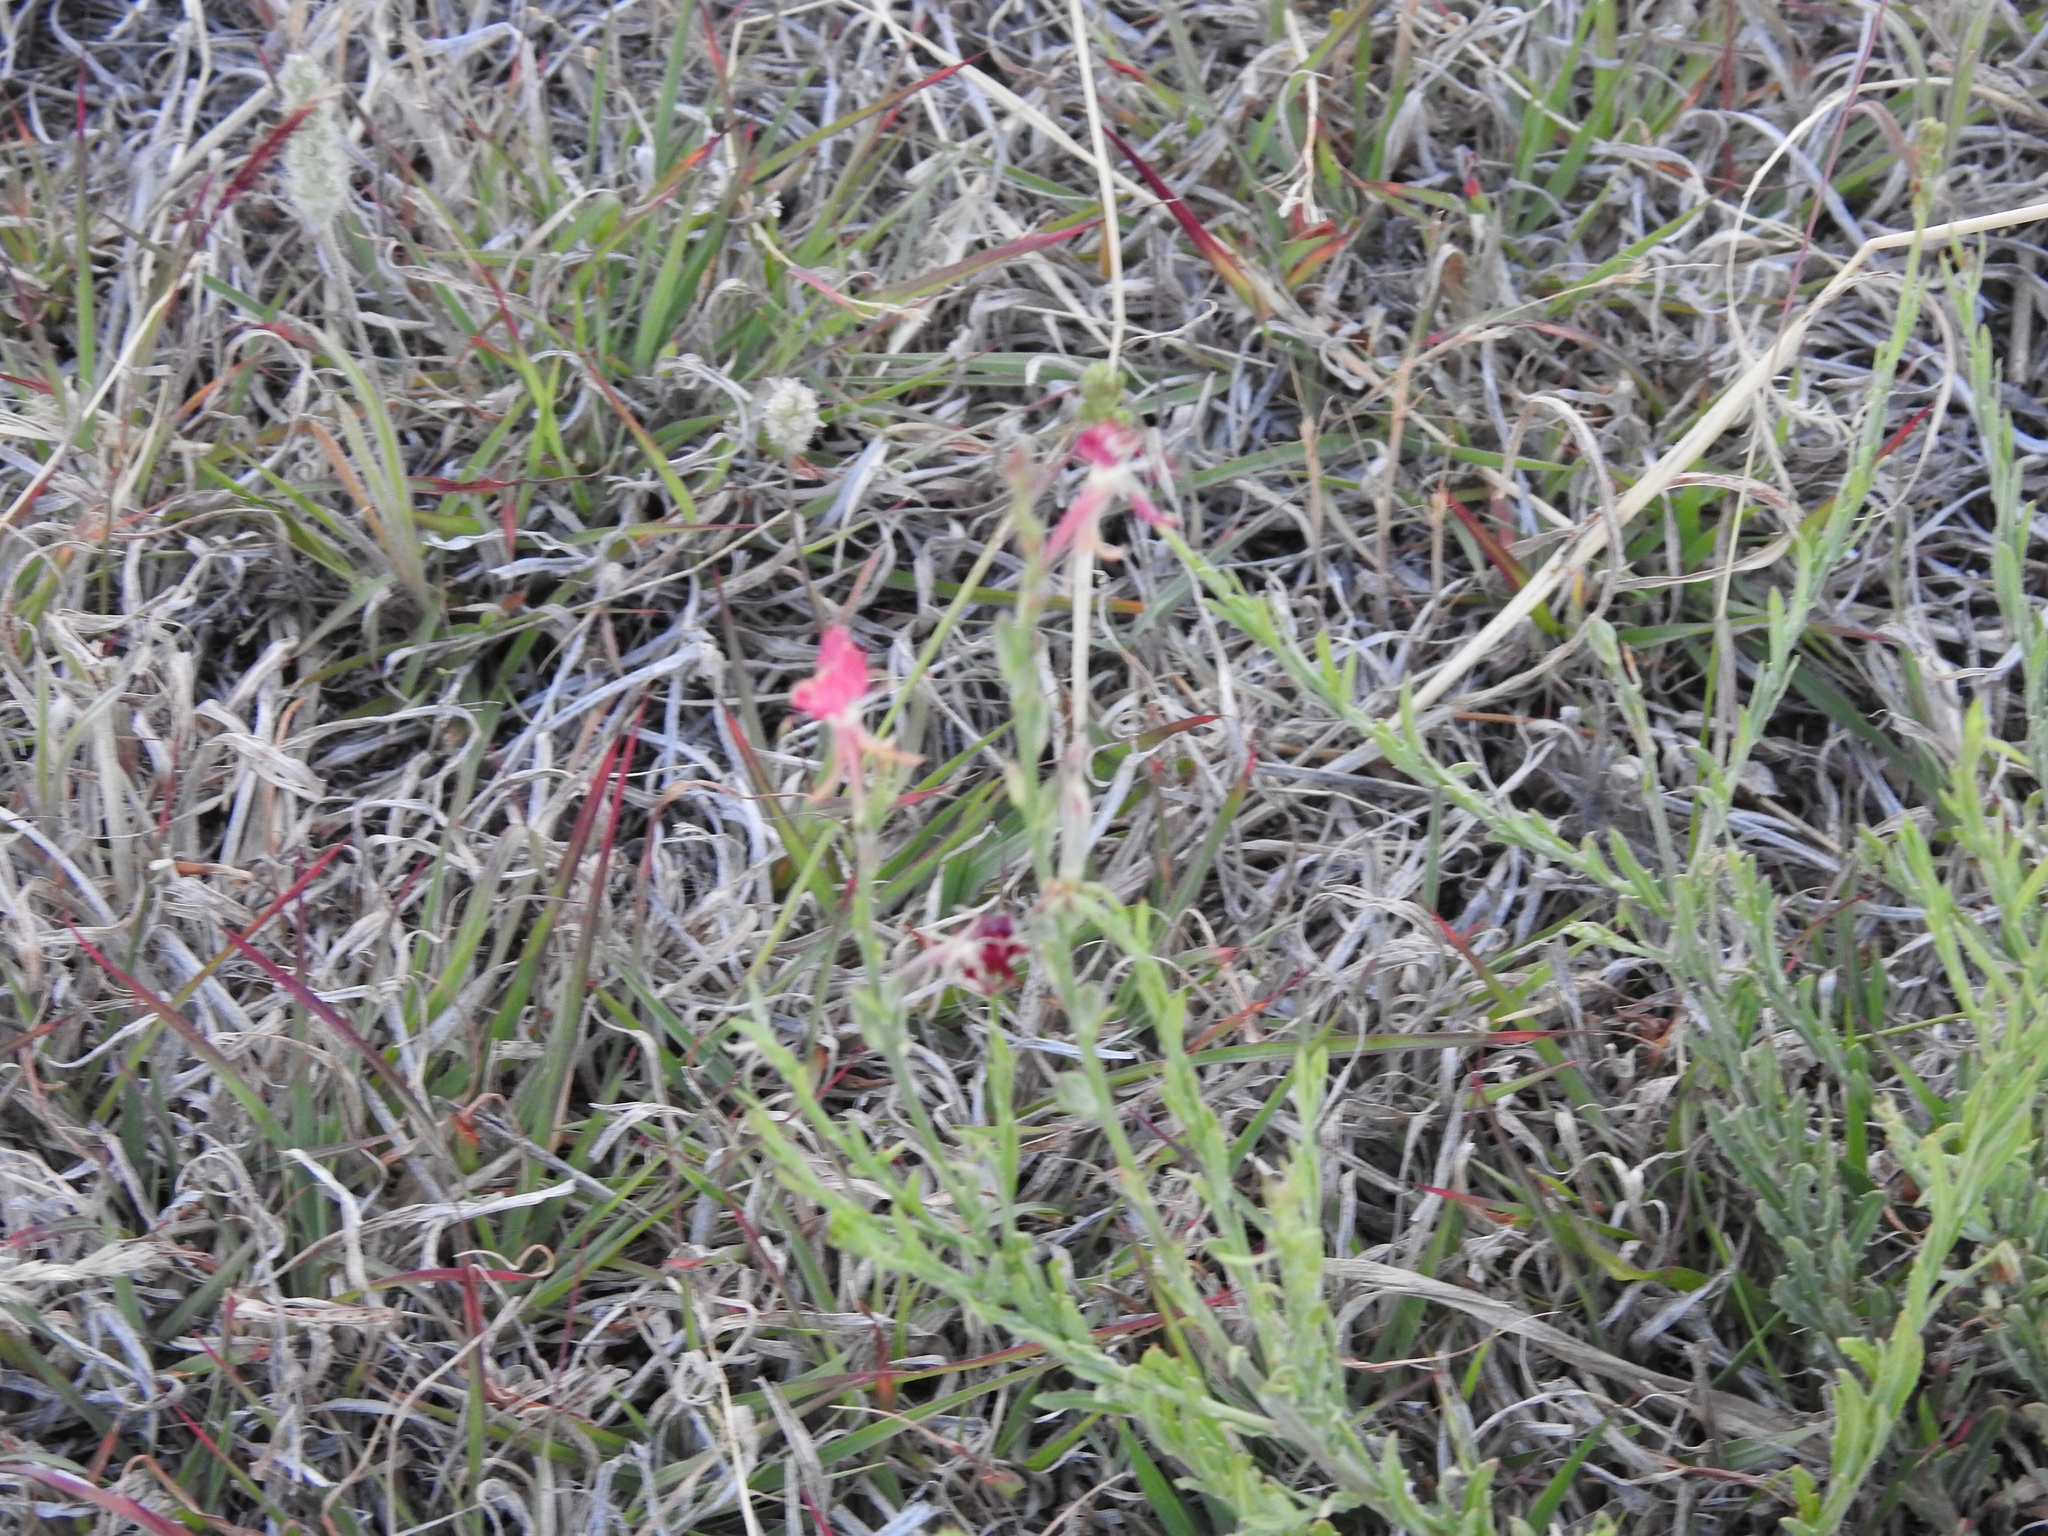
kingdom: Plantae
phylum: Tracheophyta
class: Magnoliopsida
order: Myrtales
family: Onagraceae
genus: Oenothera
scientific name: Oenothera suffrutescens
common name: Scarlet beeblossom
